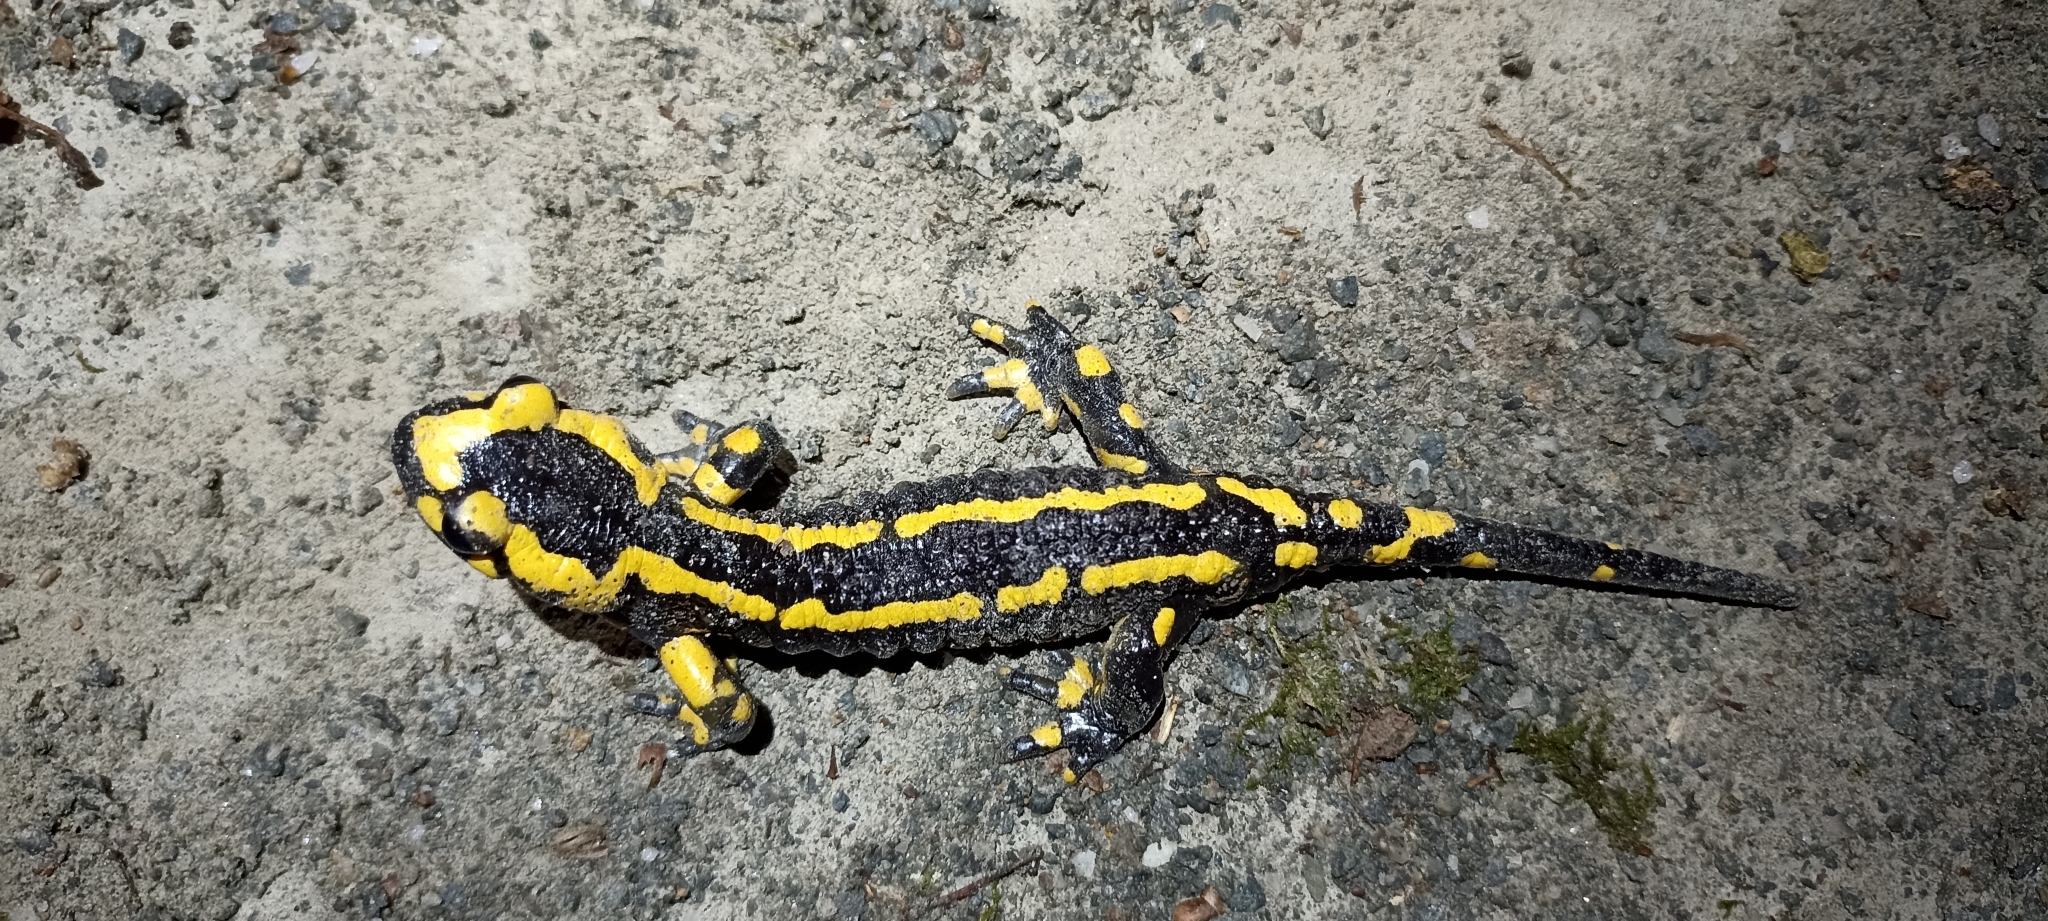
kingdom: Animalia
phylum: Chordata
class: Amphibia
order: Caudata
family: Salamandridae
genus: Salamandra
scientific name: Salamandra salamandra
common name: Fire salamander
